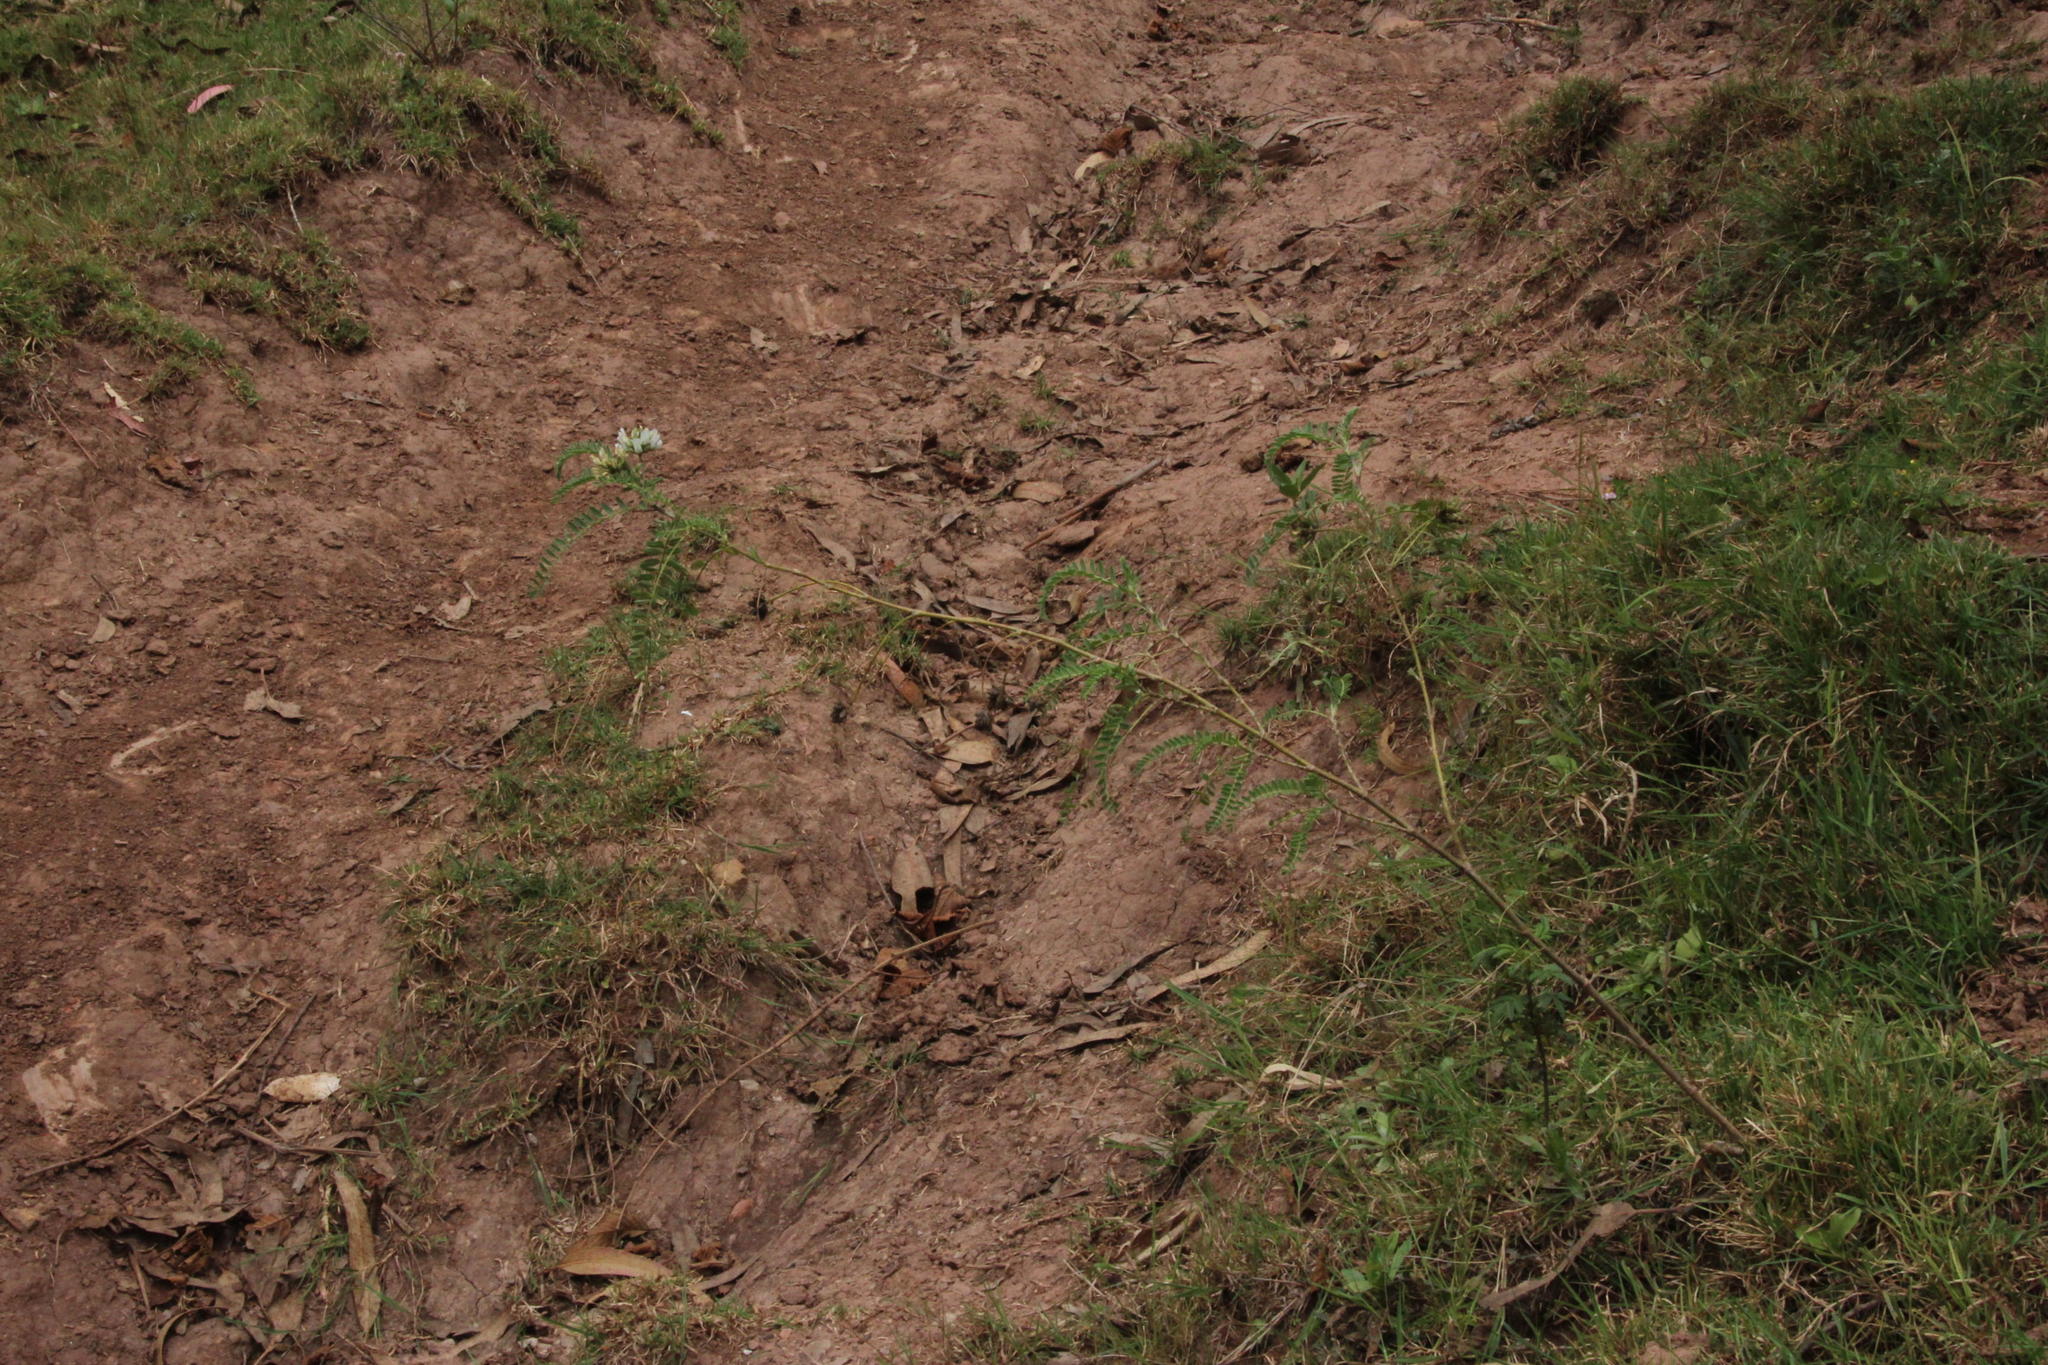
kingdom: Plantae
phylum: Tracheophyta
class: Magnoliopsida
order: Fabales
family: Fabaceae
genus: Astragalus
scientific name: Astragalus garbancillo
